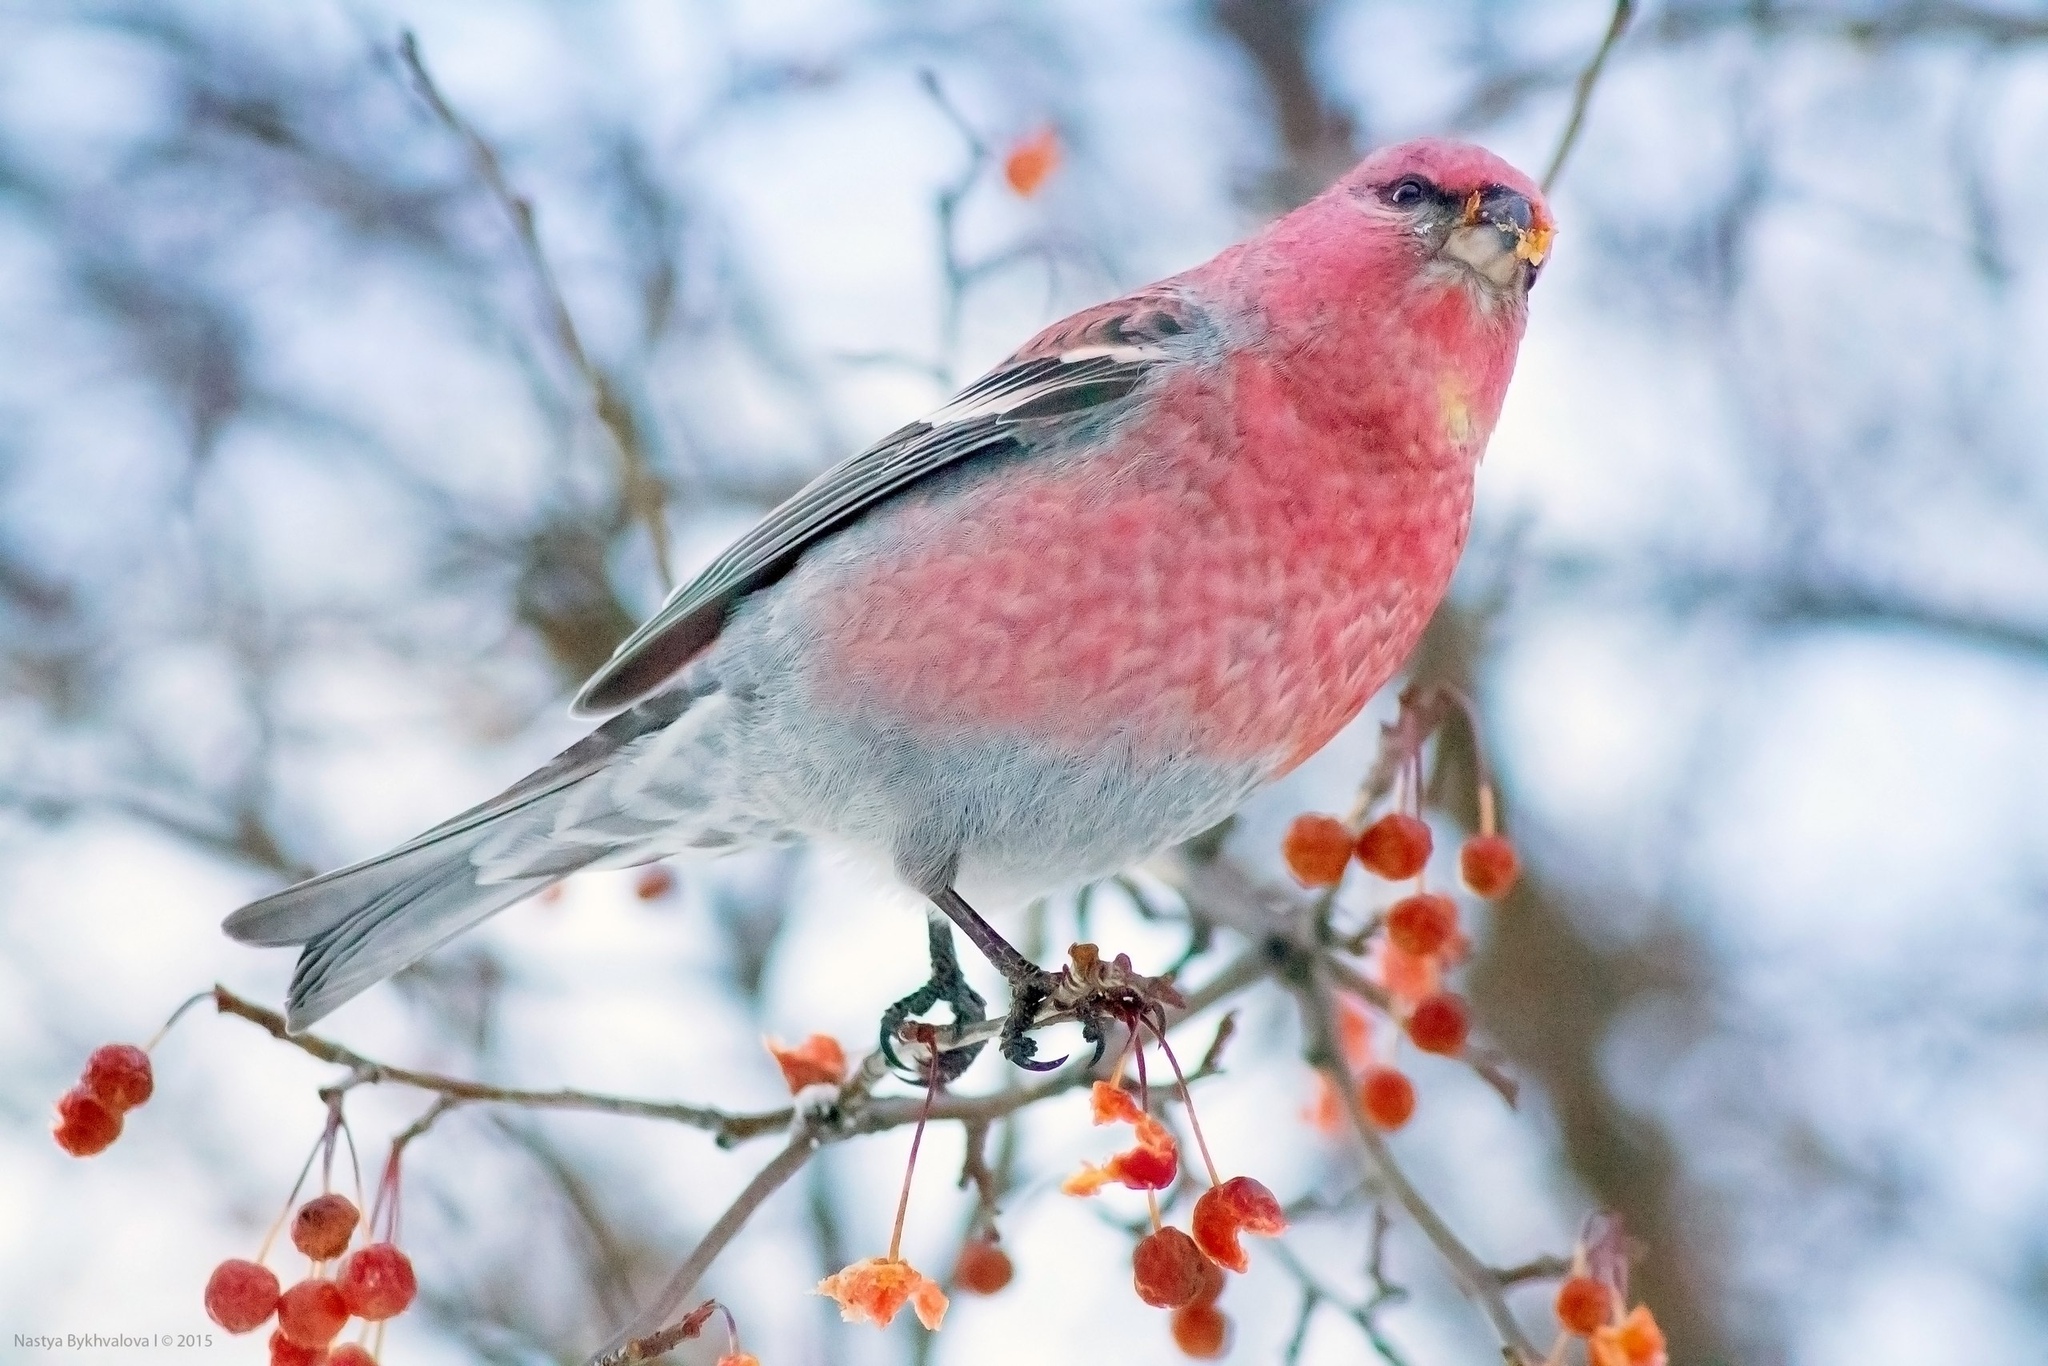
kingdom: Animalia
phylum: Chordata
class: Aves
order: Passeriformes
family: Fringillidae
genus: Pinicola
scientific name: Pinicola enucleator
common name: Pine grosbeak
